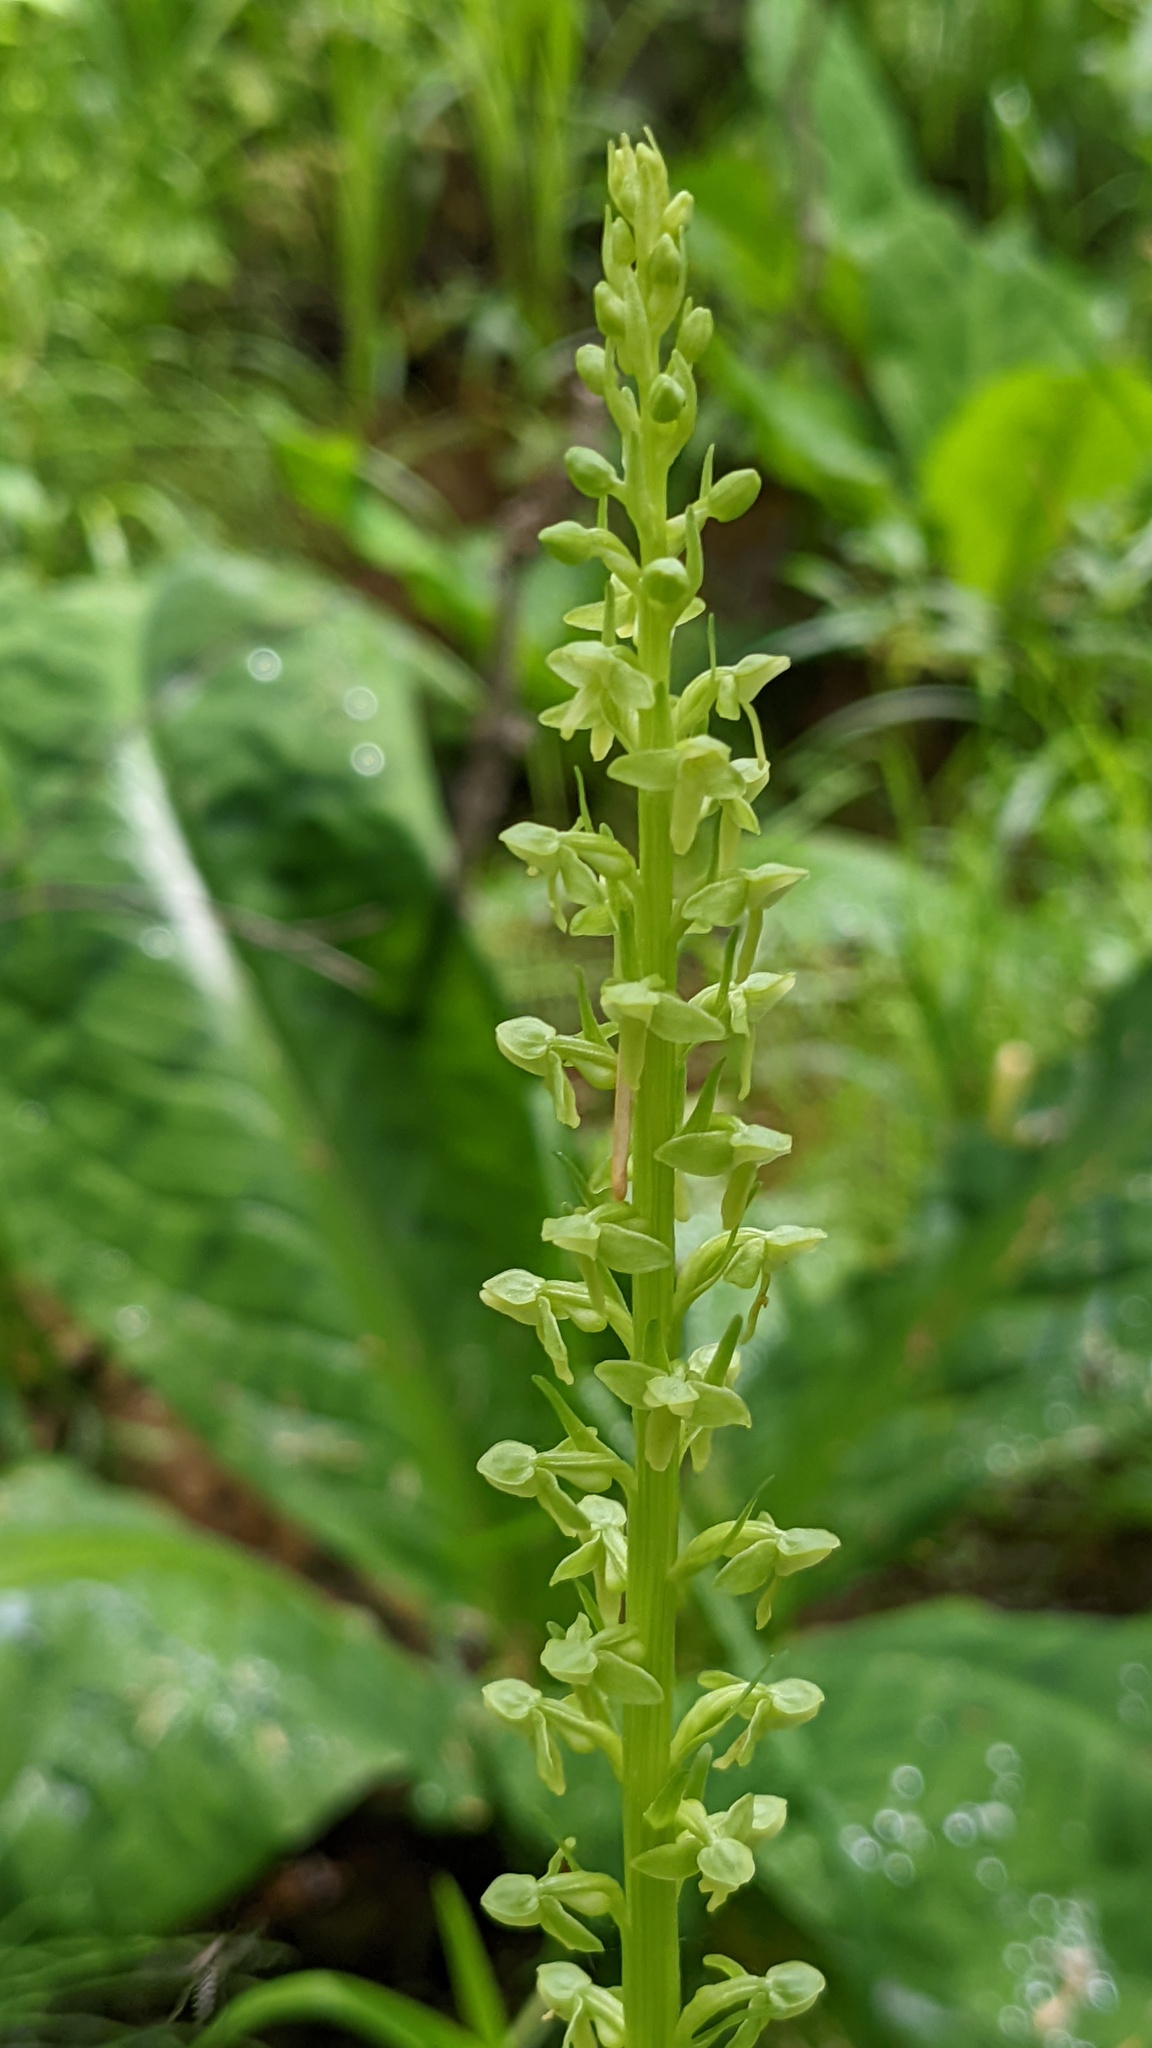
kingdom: Plantae
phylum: Tracheophyta
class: Liliopsida
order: Asparagales
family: Orchidaceae
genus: Platanthera
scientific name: Platanthera stricta
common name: Slender bog orchid
